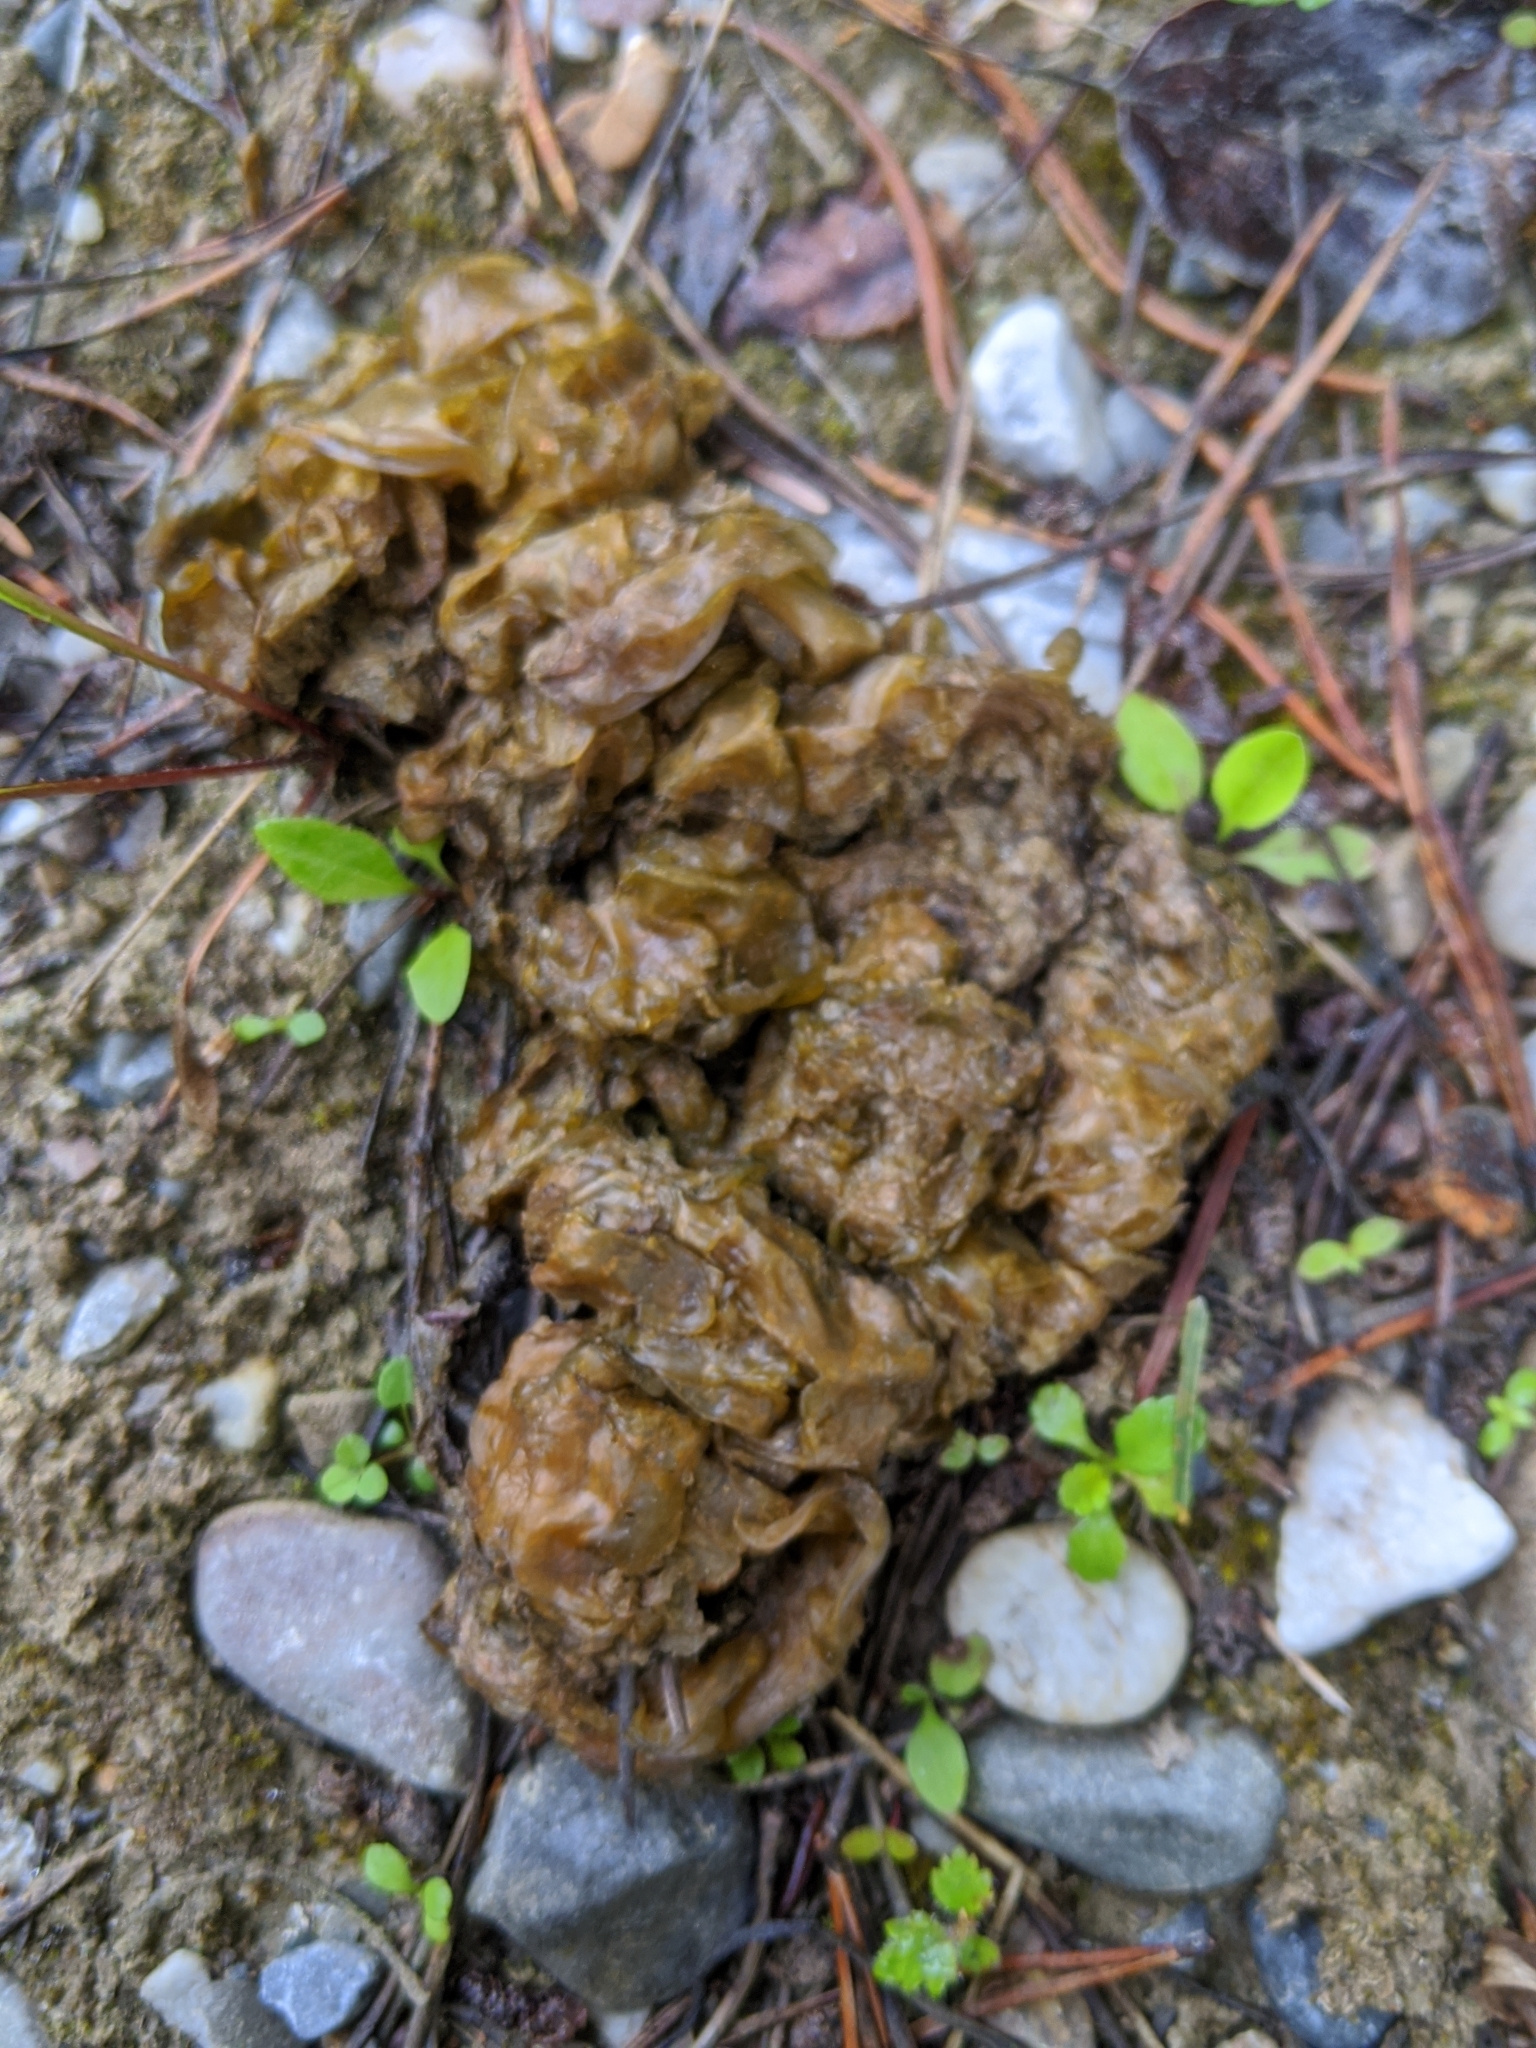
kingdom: Bacteria
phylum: Cyanobacteria
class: Cyanobacteriia
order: Cyanobacteriales
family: Nostocaceae
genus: Nostoc
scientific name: Nostoc commune
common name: Star jelly
